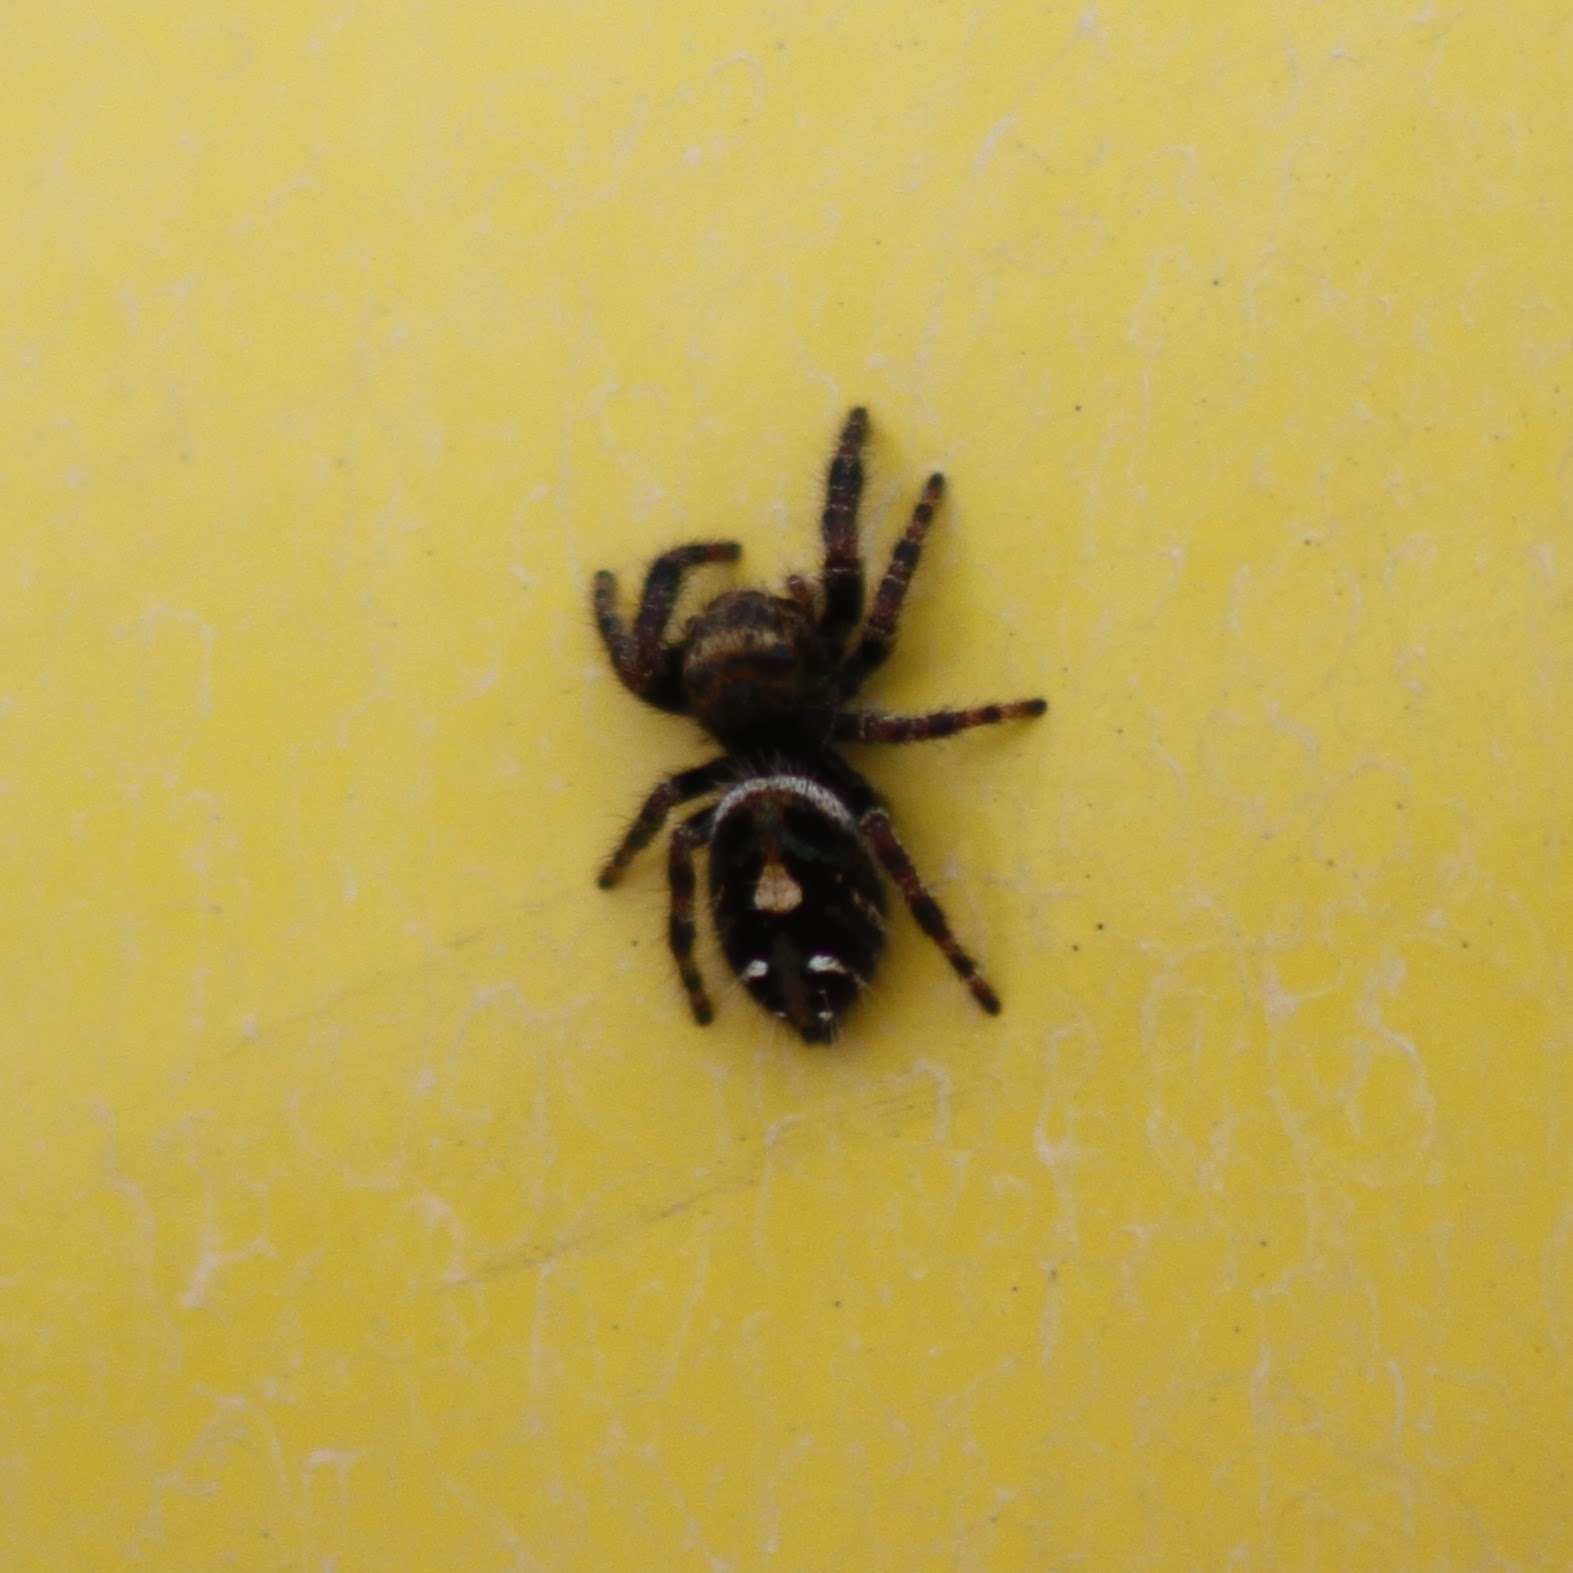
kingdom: Animalia
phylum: Arthropoda
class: Arachnida
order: Araneae
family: Salticidae
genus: Phidippus
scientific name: Phidippus audax
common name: Bold jumper
